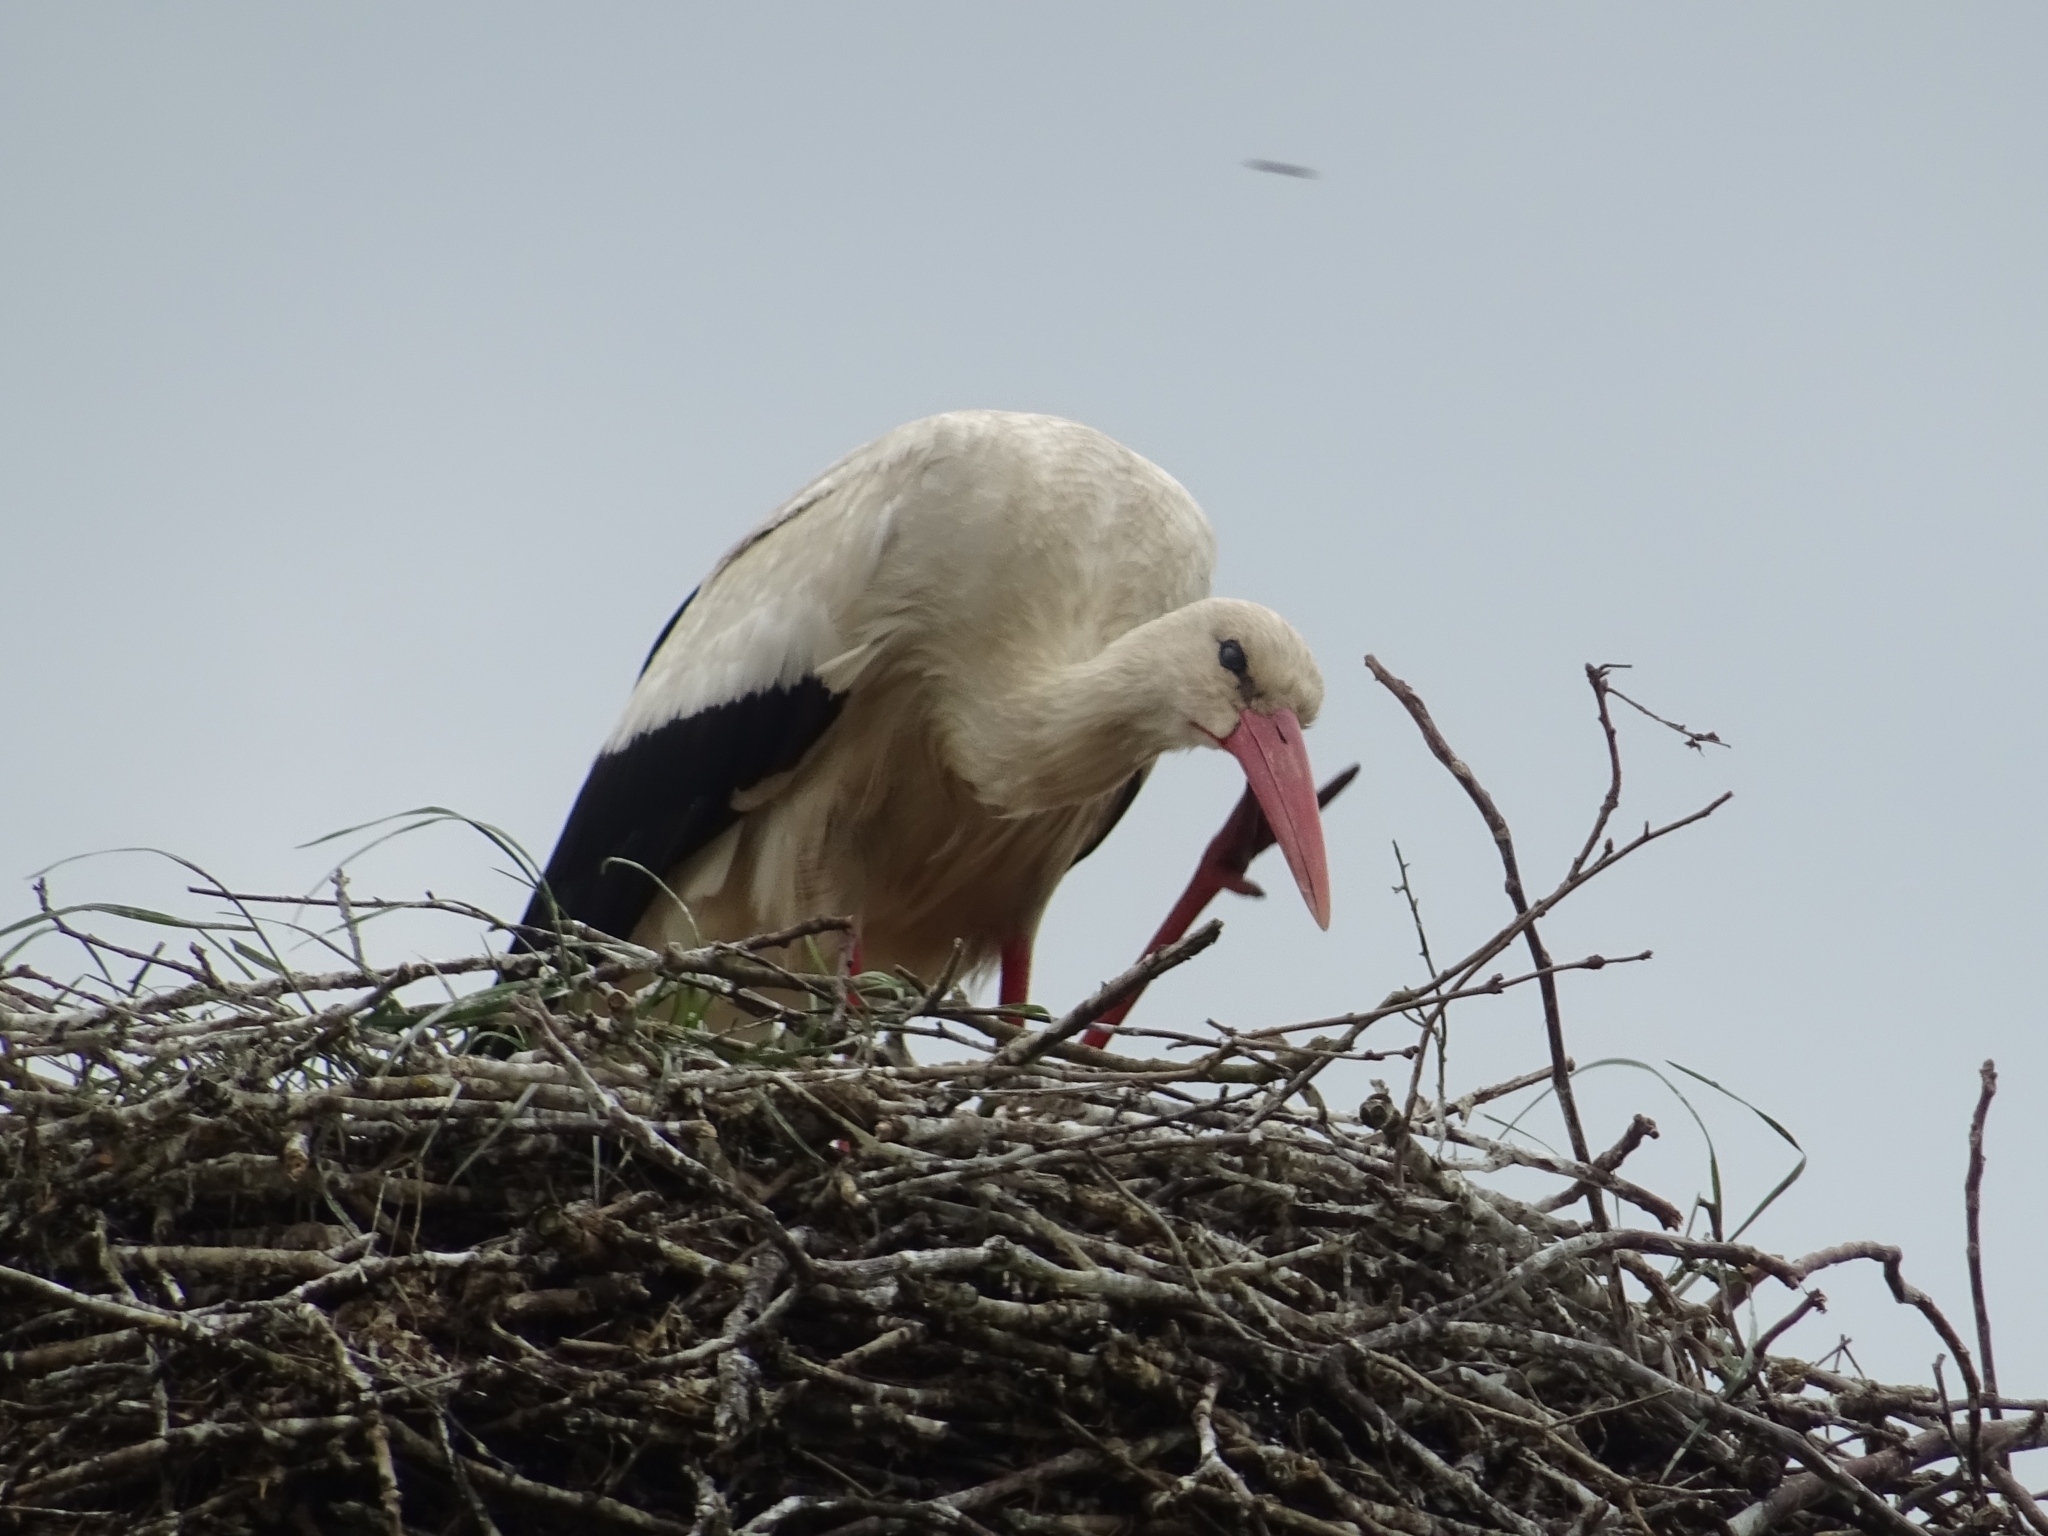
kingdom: Animalia
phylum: Chordata
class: Aves
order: Ciconiiformes
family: Ciconiidae
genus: Ciconia
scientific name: Ciconia ciconia
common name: White stork
